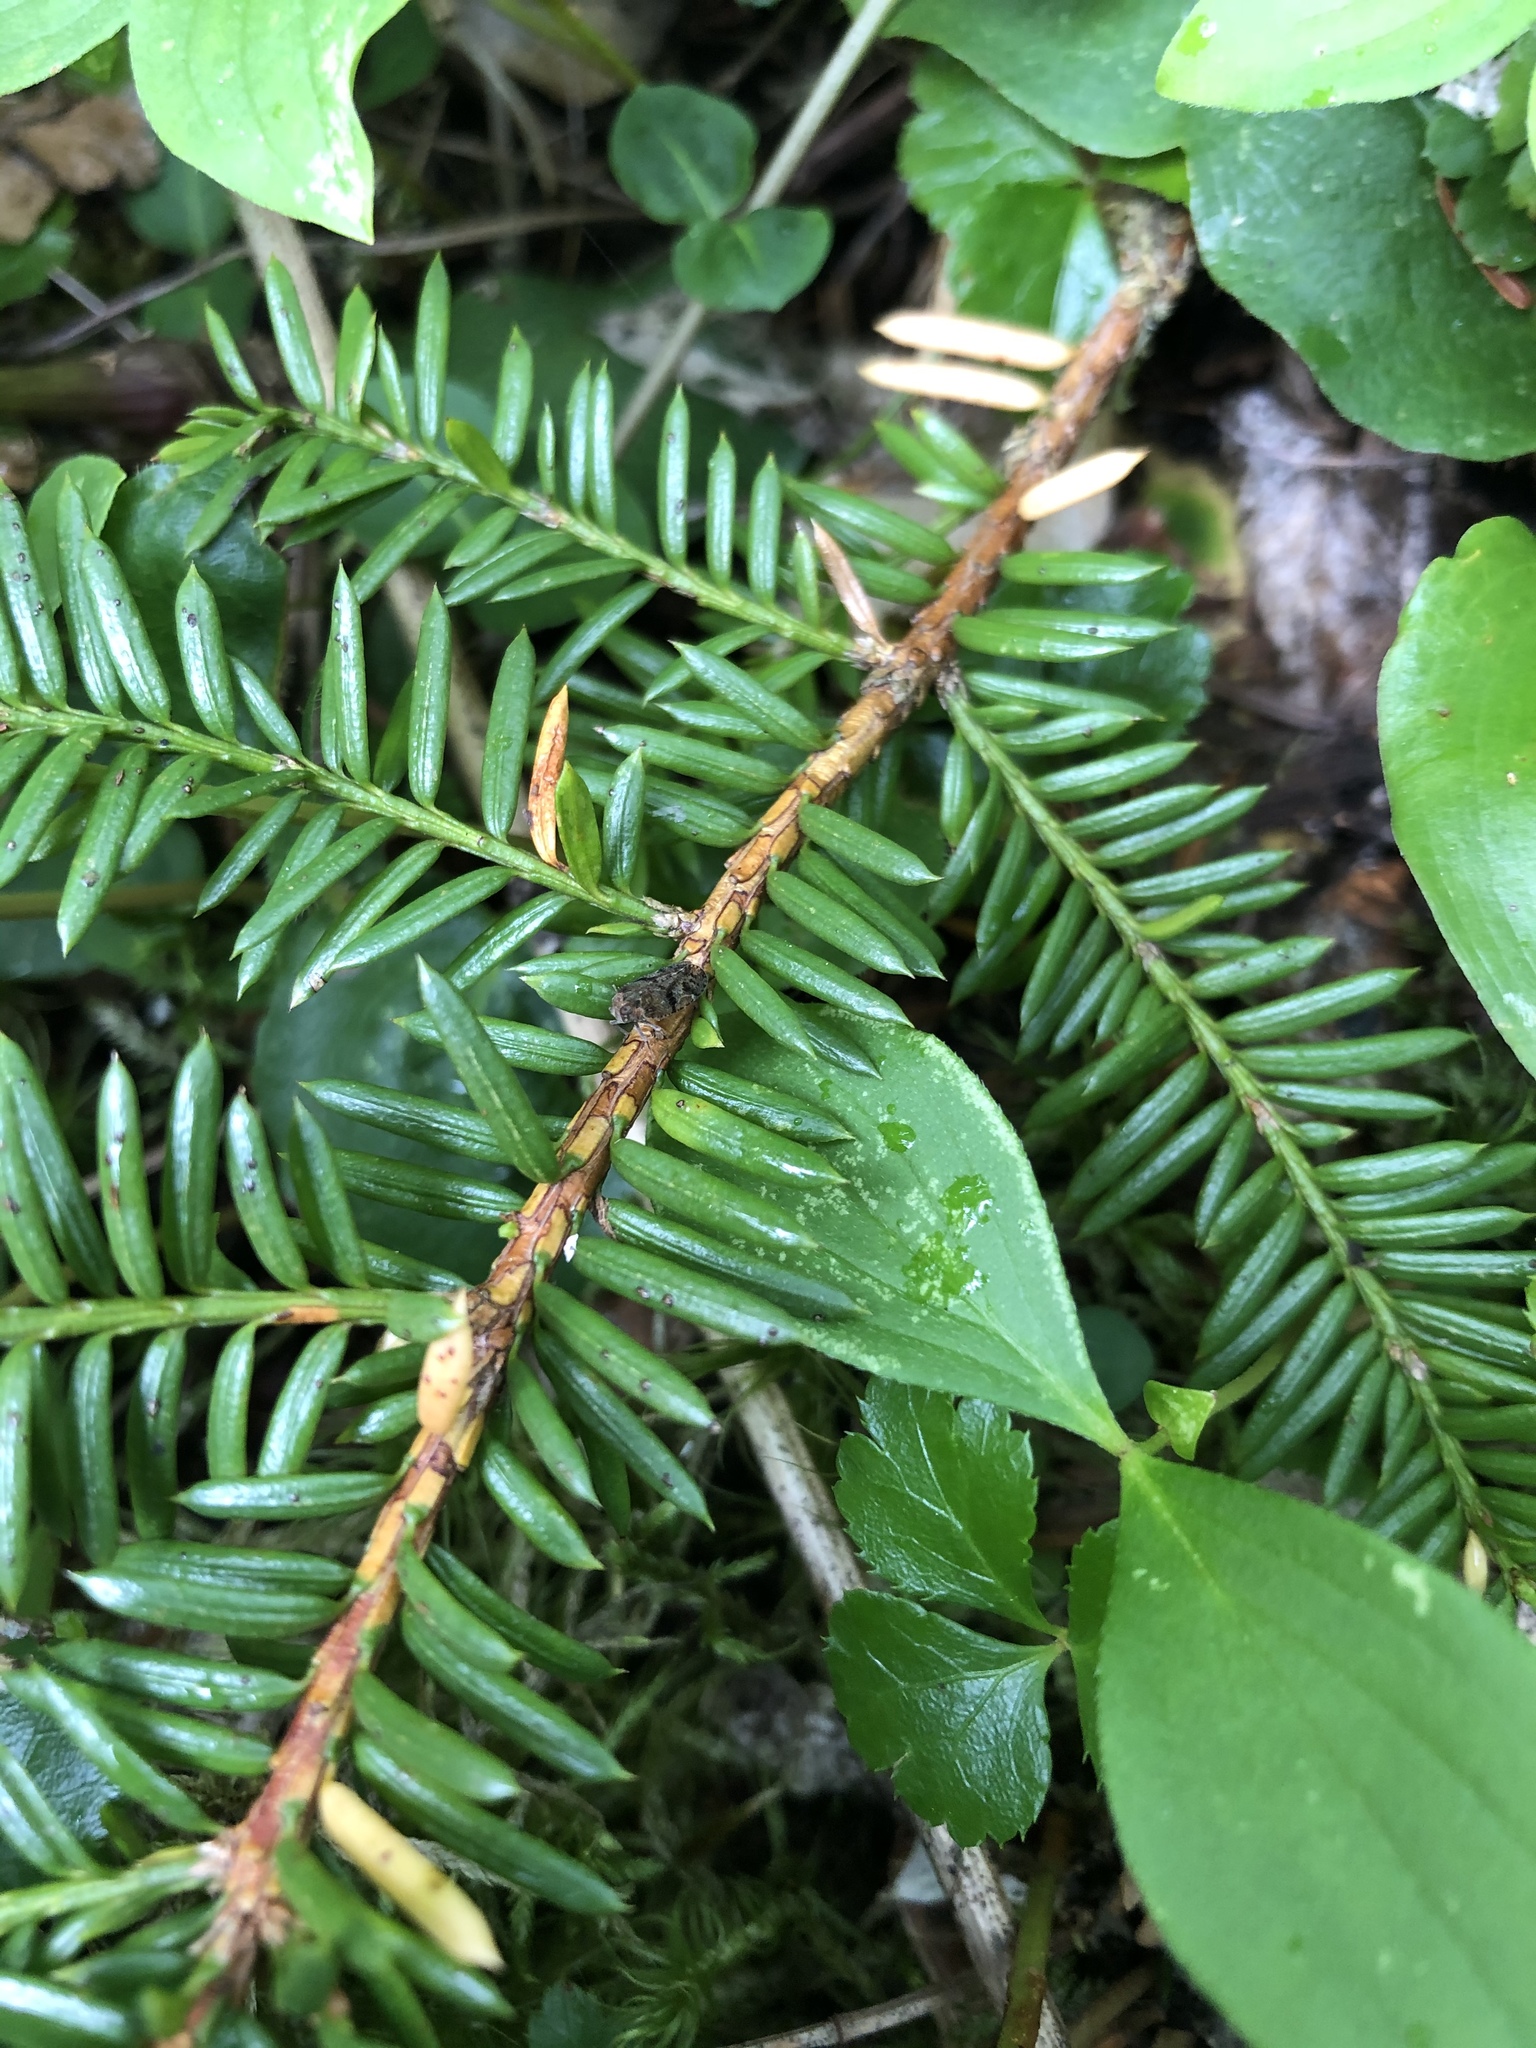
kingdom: Plantae
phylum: Tracheophyta
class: Pinopsida
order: Pinales
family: Taxaceae
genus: Taxus
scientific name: Taxus canadensis
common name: American yew
